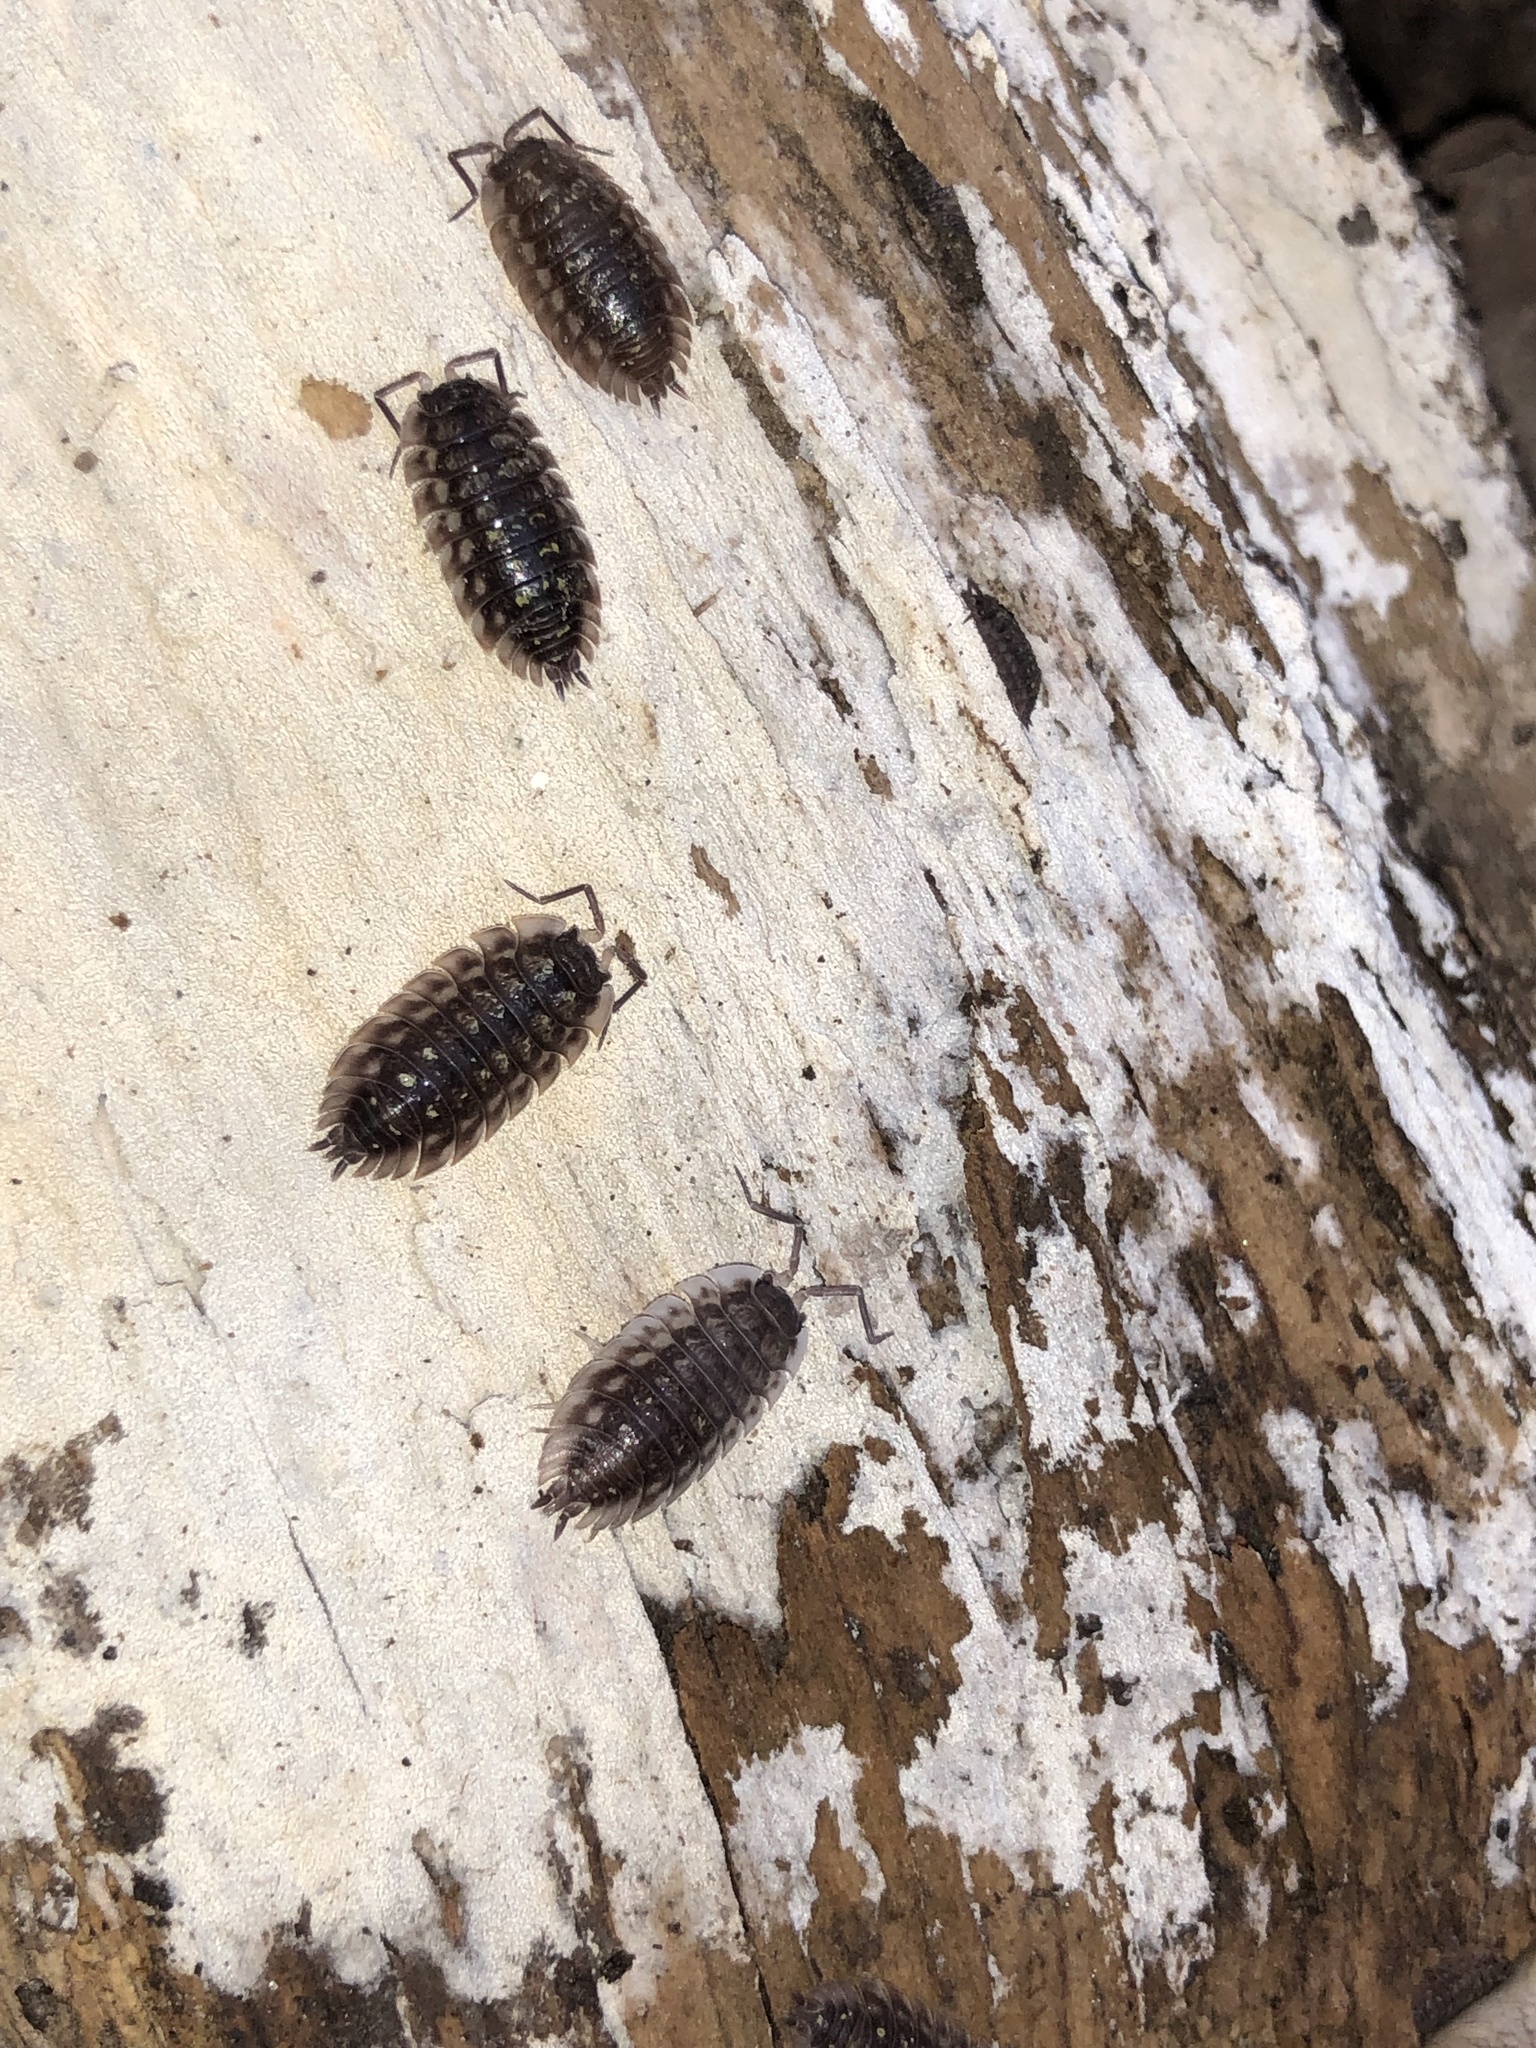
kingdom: Animalia
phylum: Arthropoda
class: Malacostraca
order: Isopoda
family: Oniscidae
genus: Oniscus
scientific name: Oniscus asellus
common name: Common shiny woodlouse
